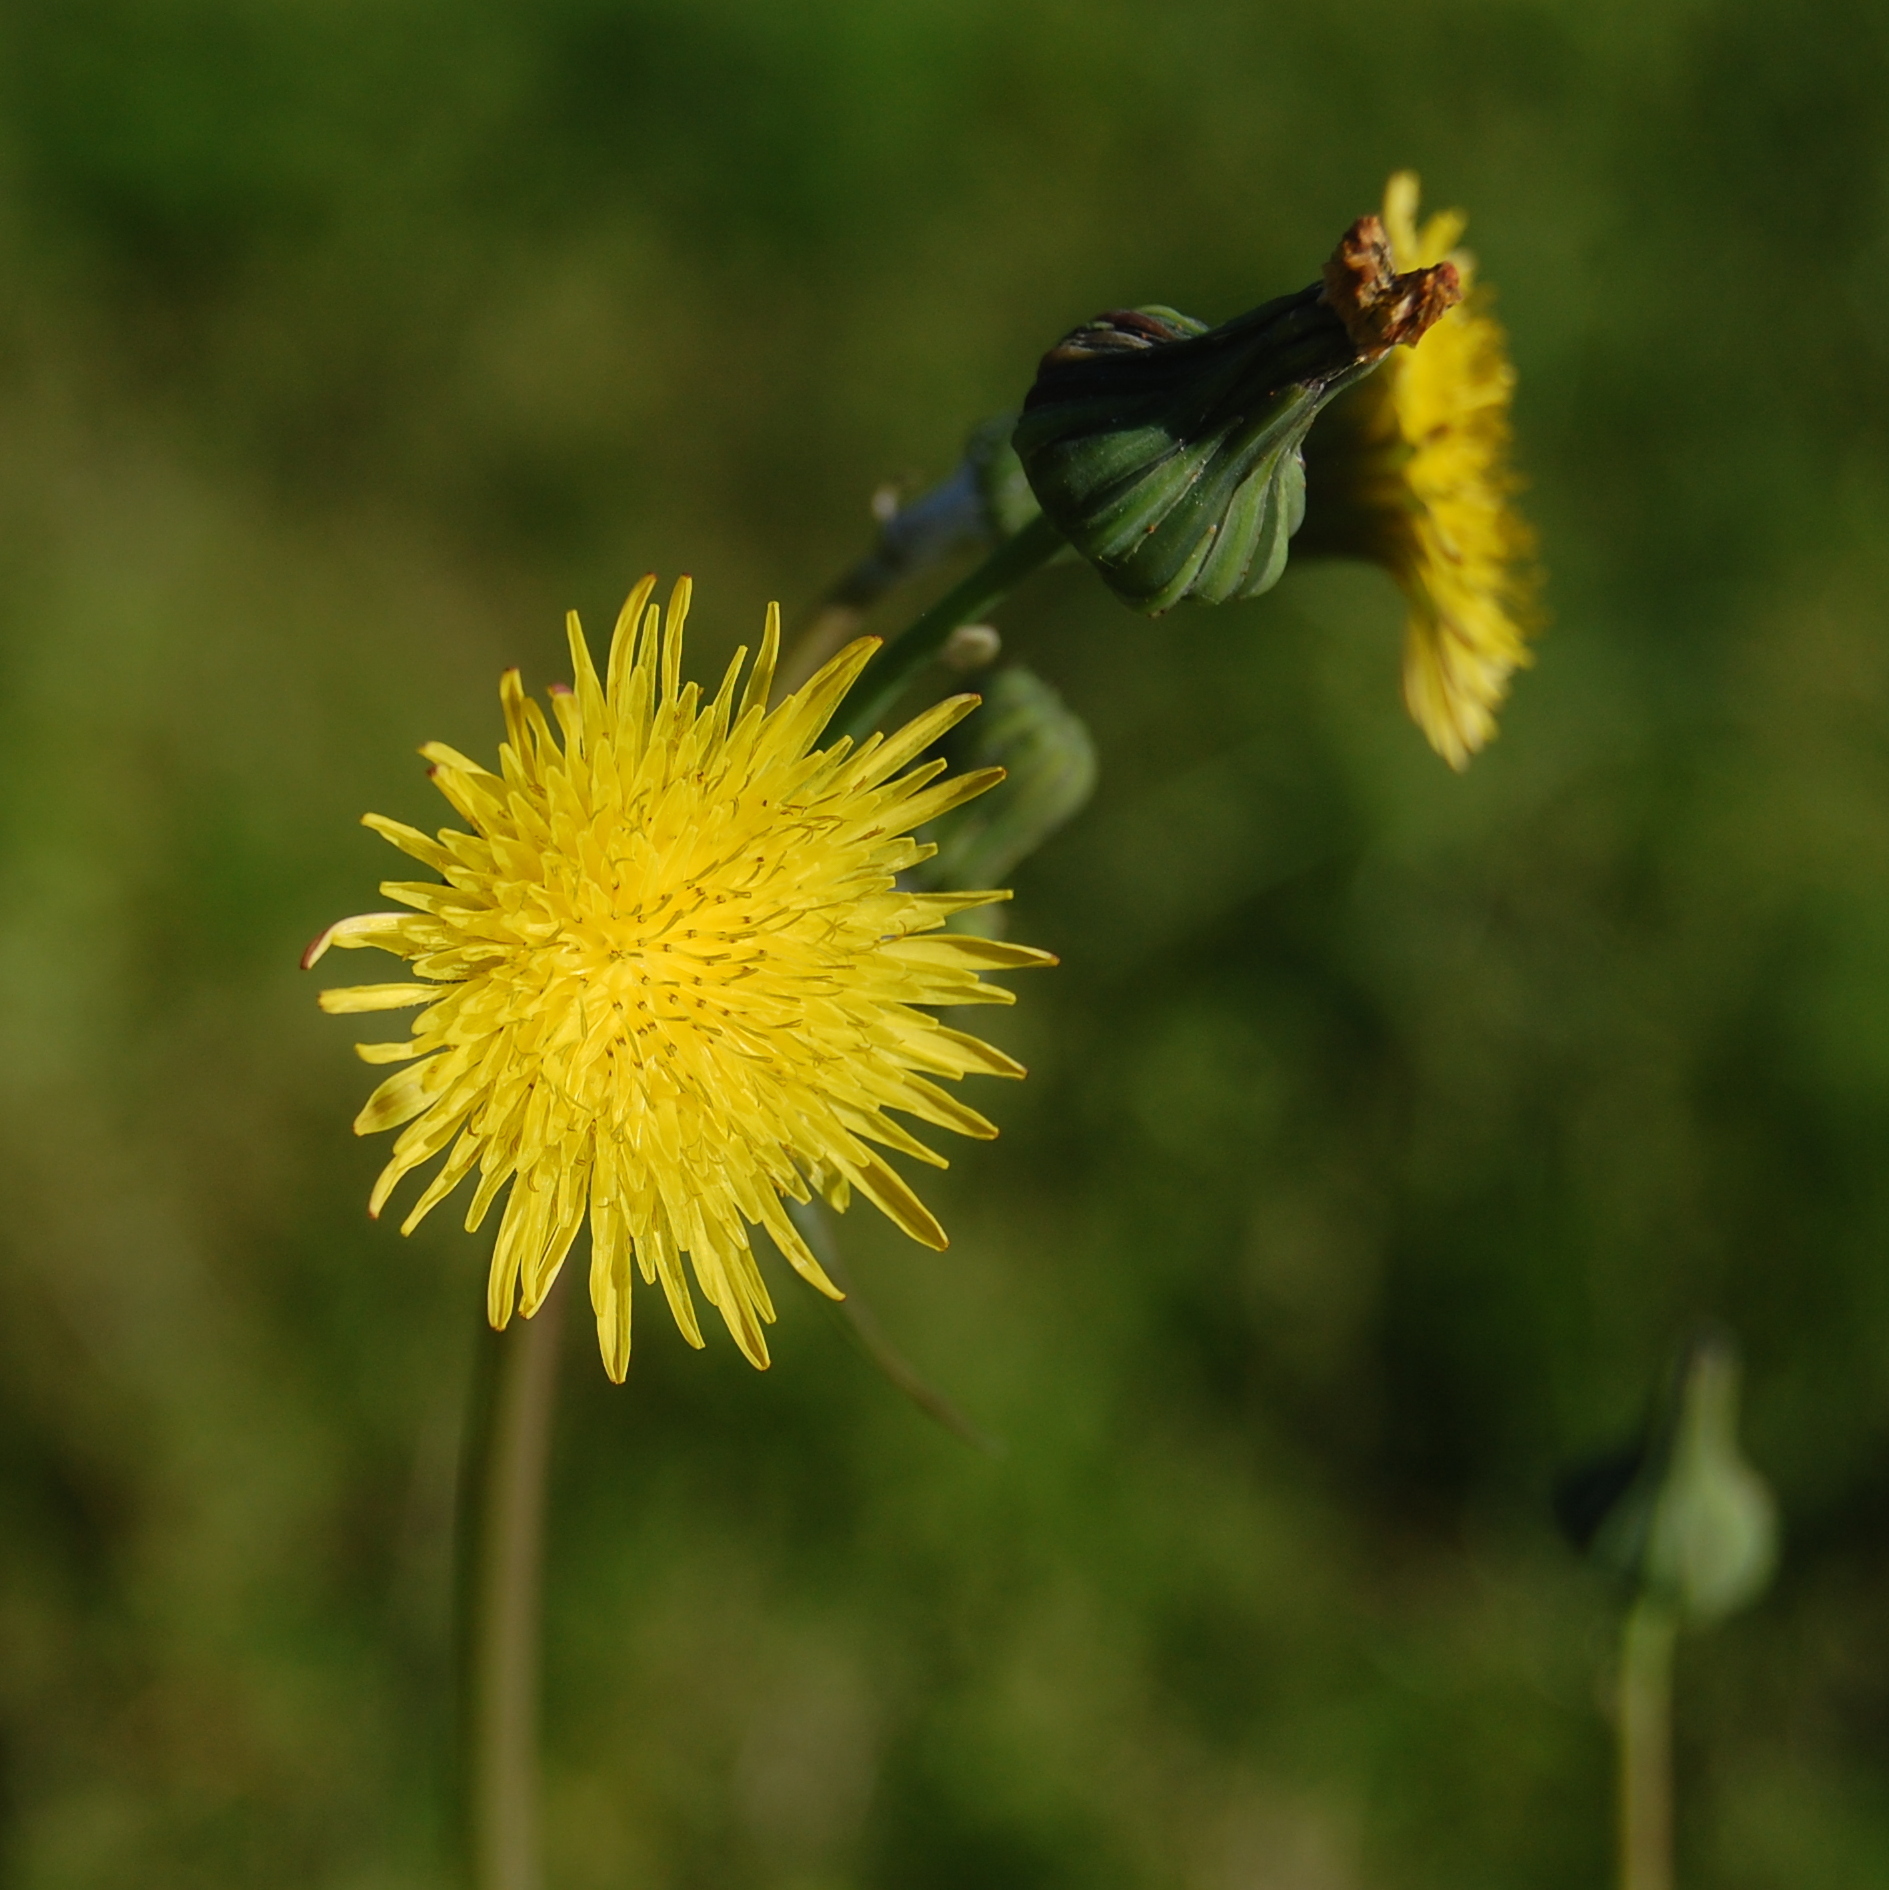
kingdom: Plantae
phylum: Tracheophyta
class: Magnoliopsida
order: Asterales
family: Asteraceae
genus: Sonchus
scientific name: Sonchus oleraceus
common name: Common sowthistle
